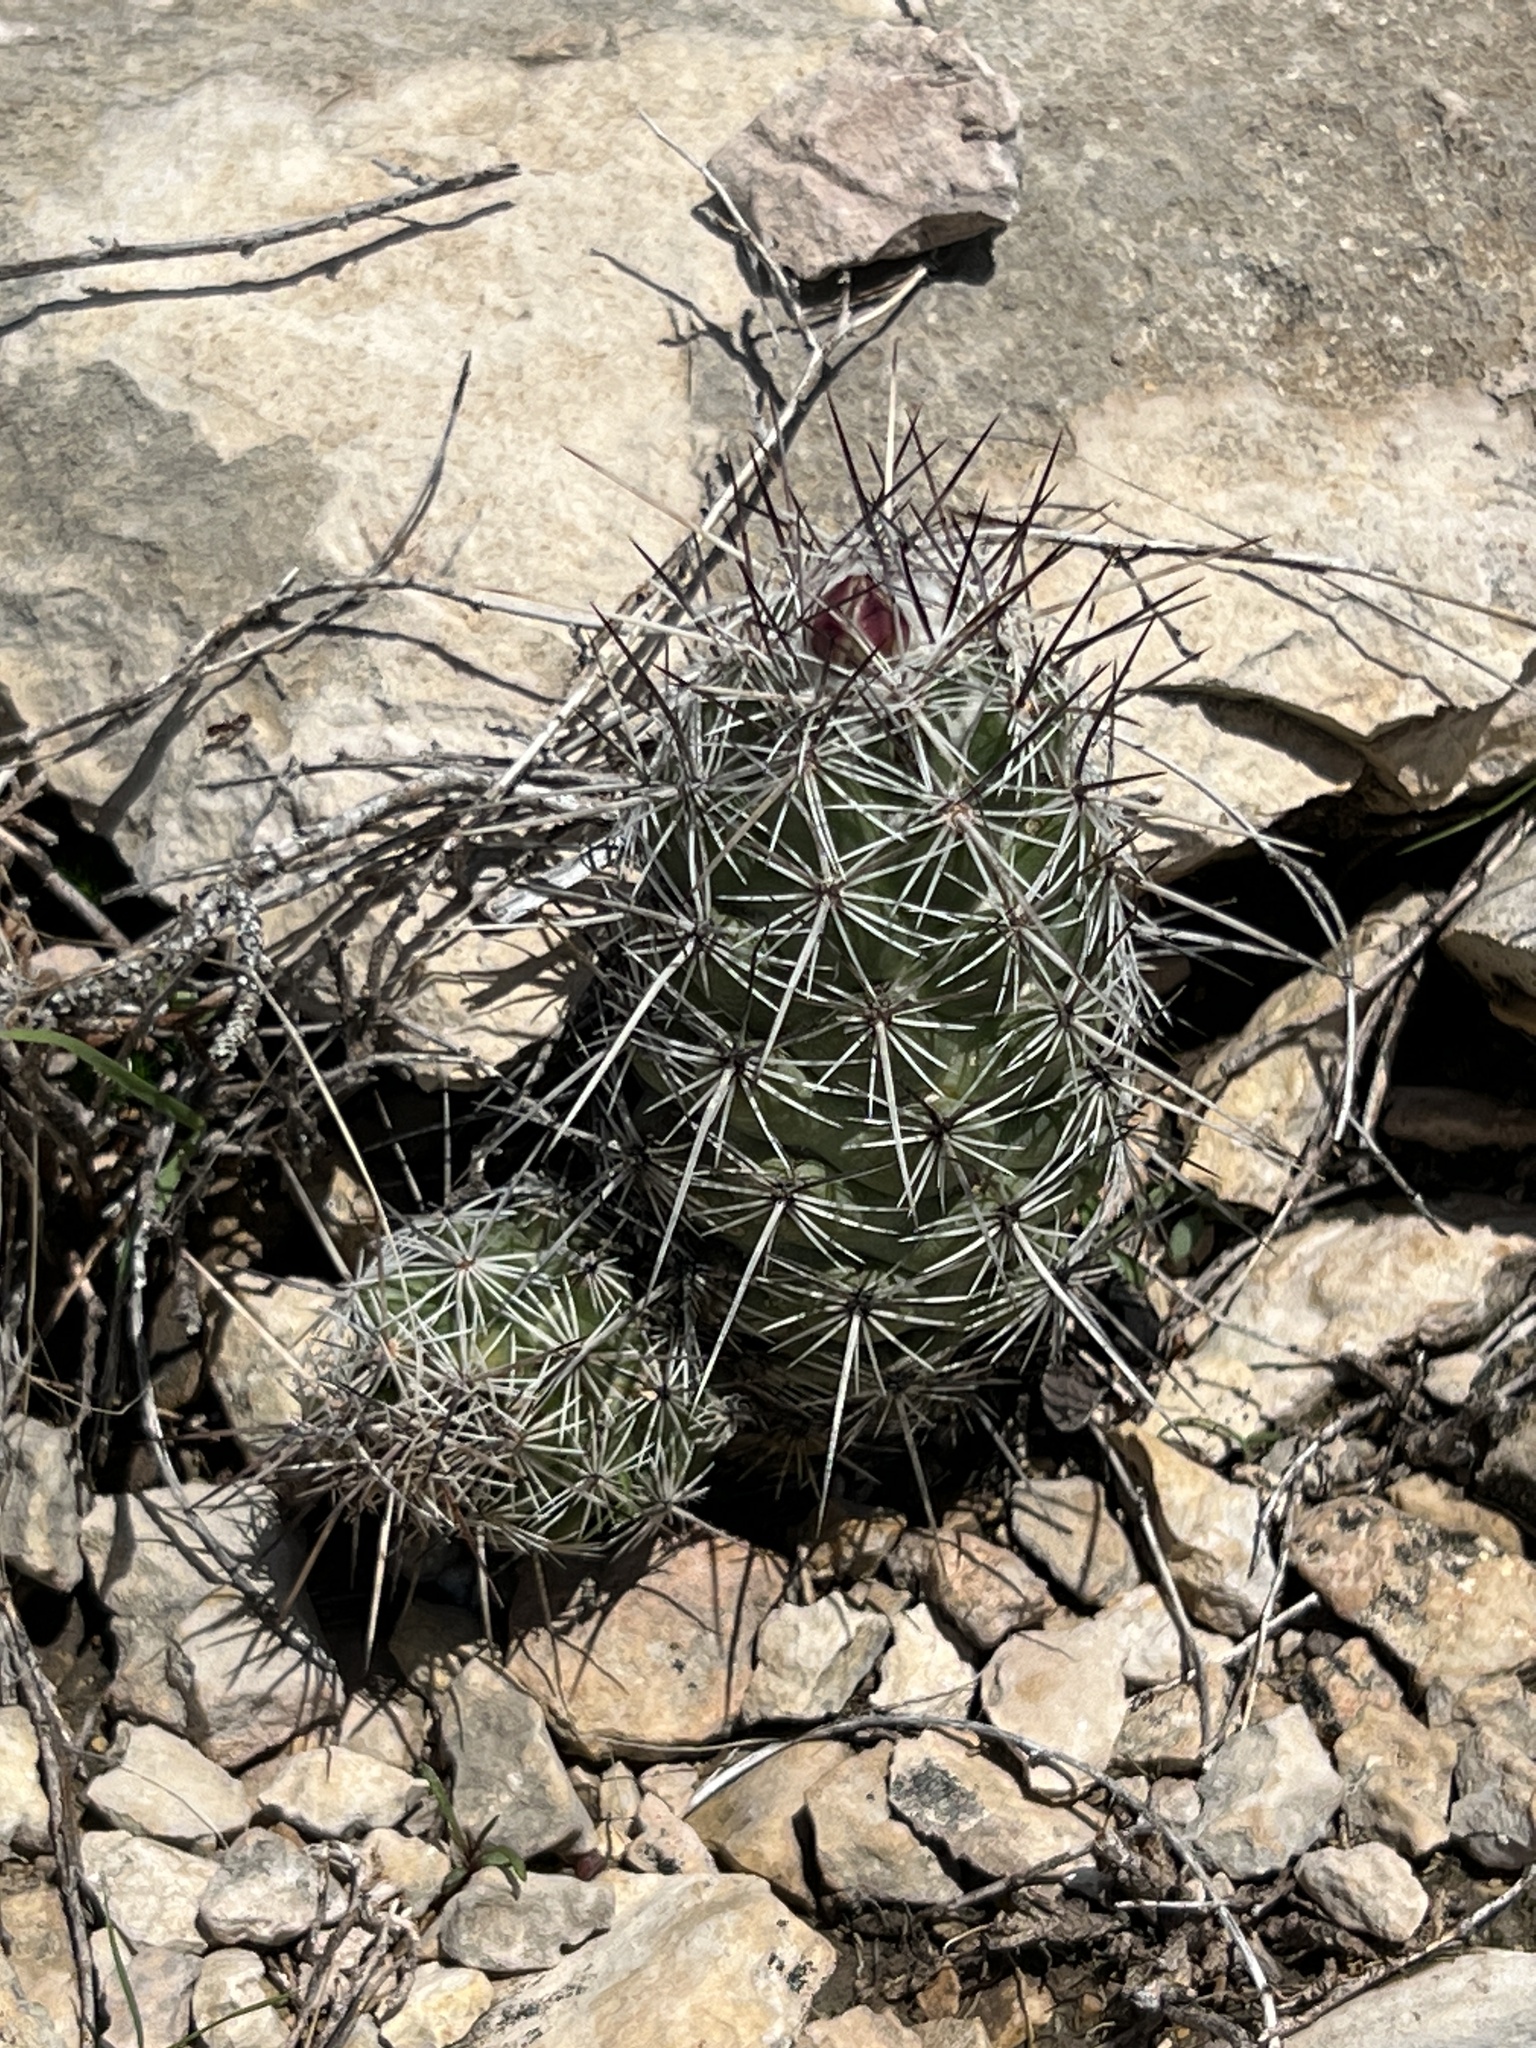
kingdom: Plantae
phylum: Tracheophyta
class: Magnoliopsida
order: Caryophyllales
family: Cactaceae
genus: Cochemiea
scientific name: Cochemiea conoidea
